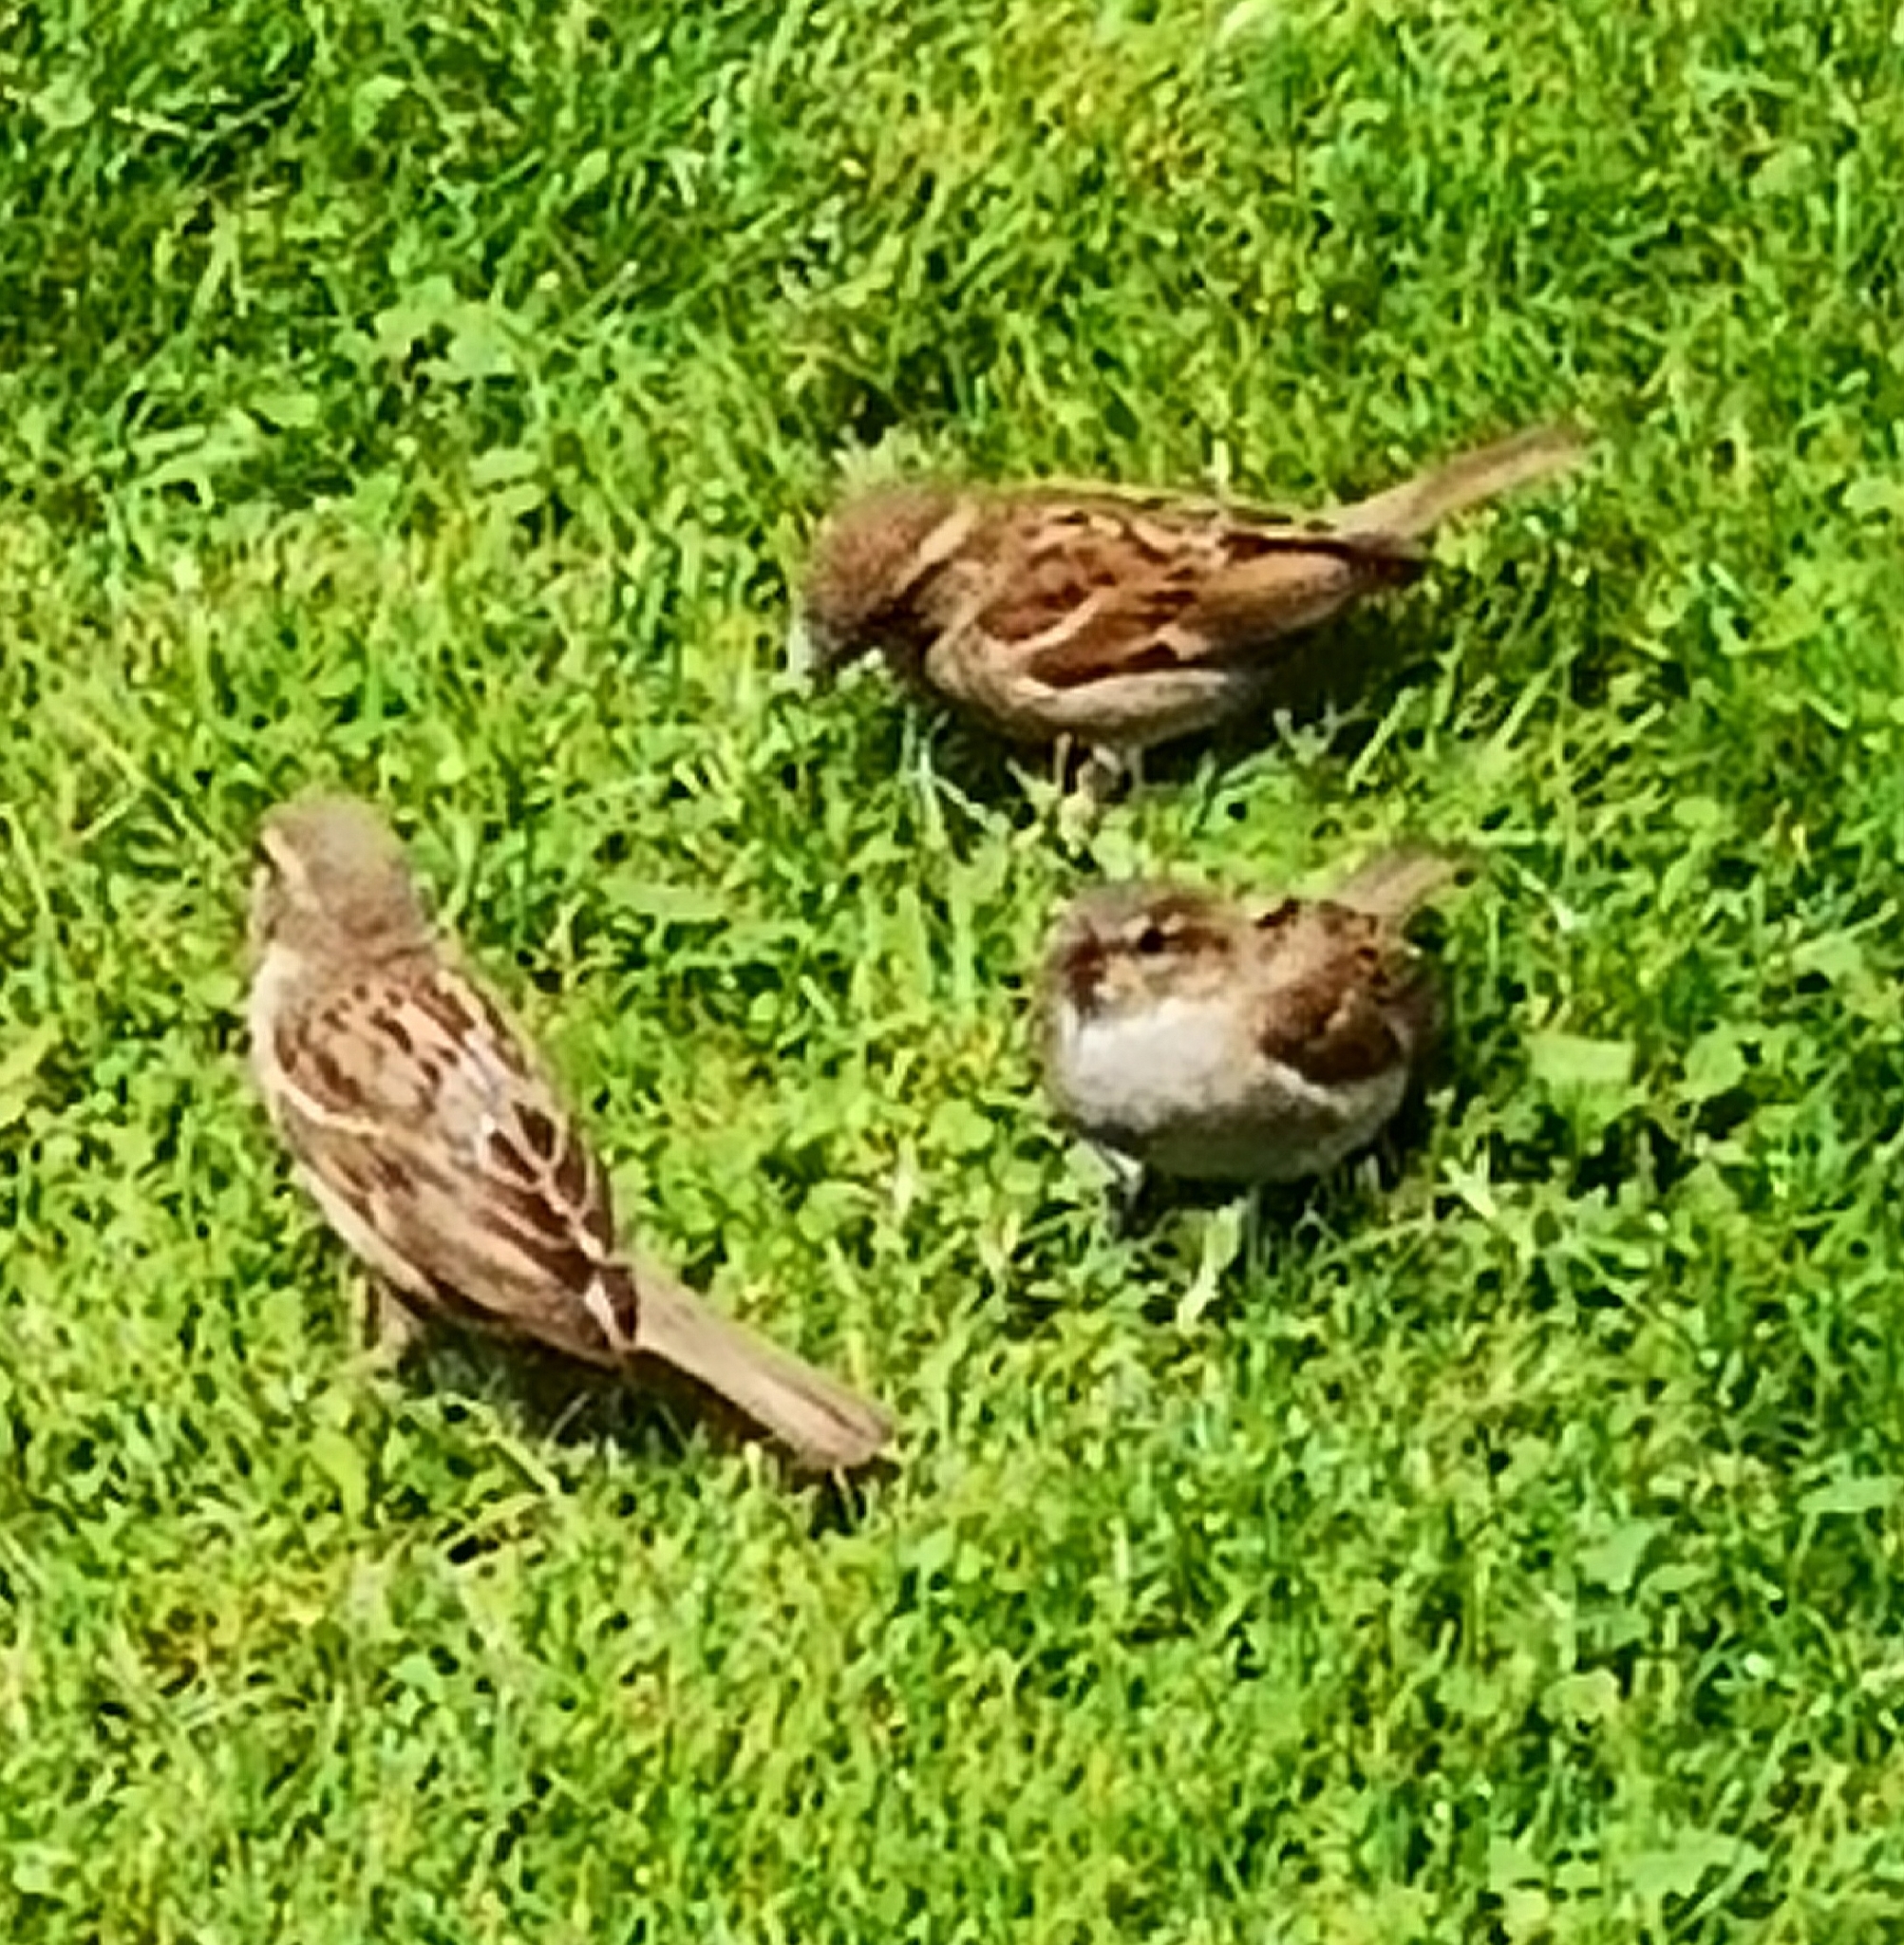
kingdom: Animalia
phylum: Chordata
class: Aves
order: Passeriformes
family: Passeridae
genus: Passer
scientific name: Passer domesticus
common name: House sparrow
